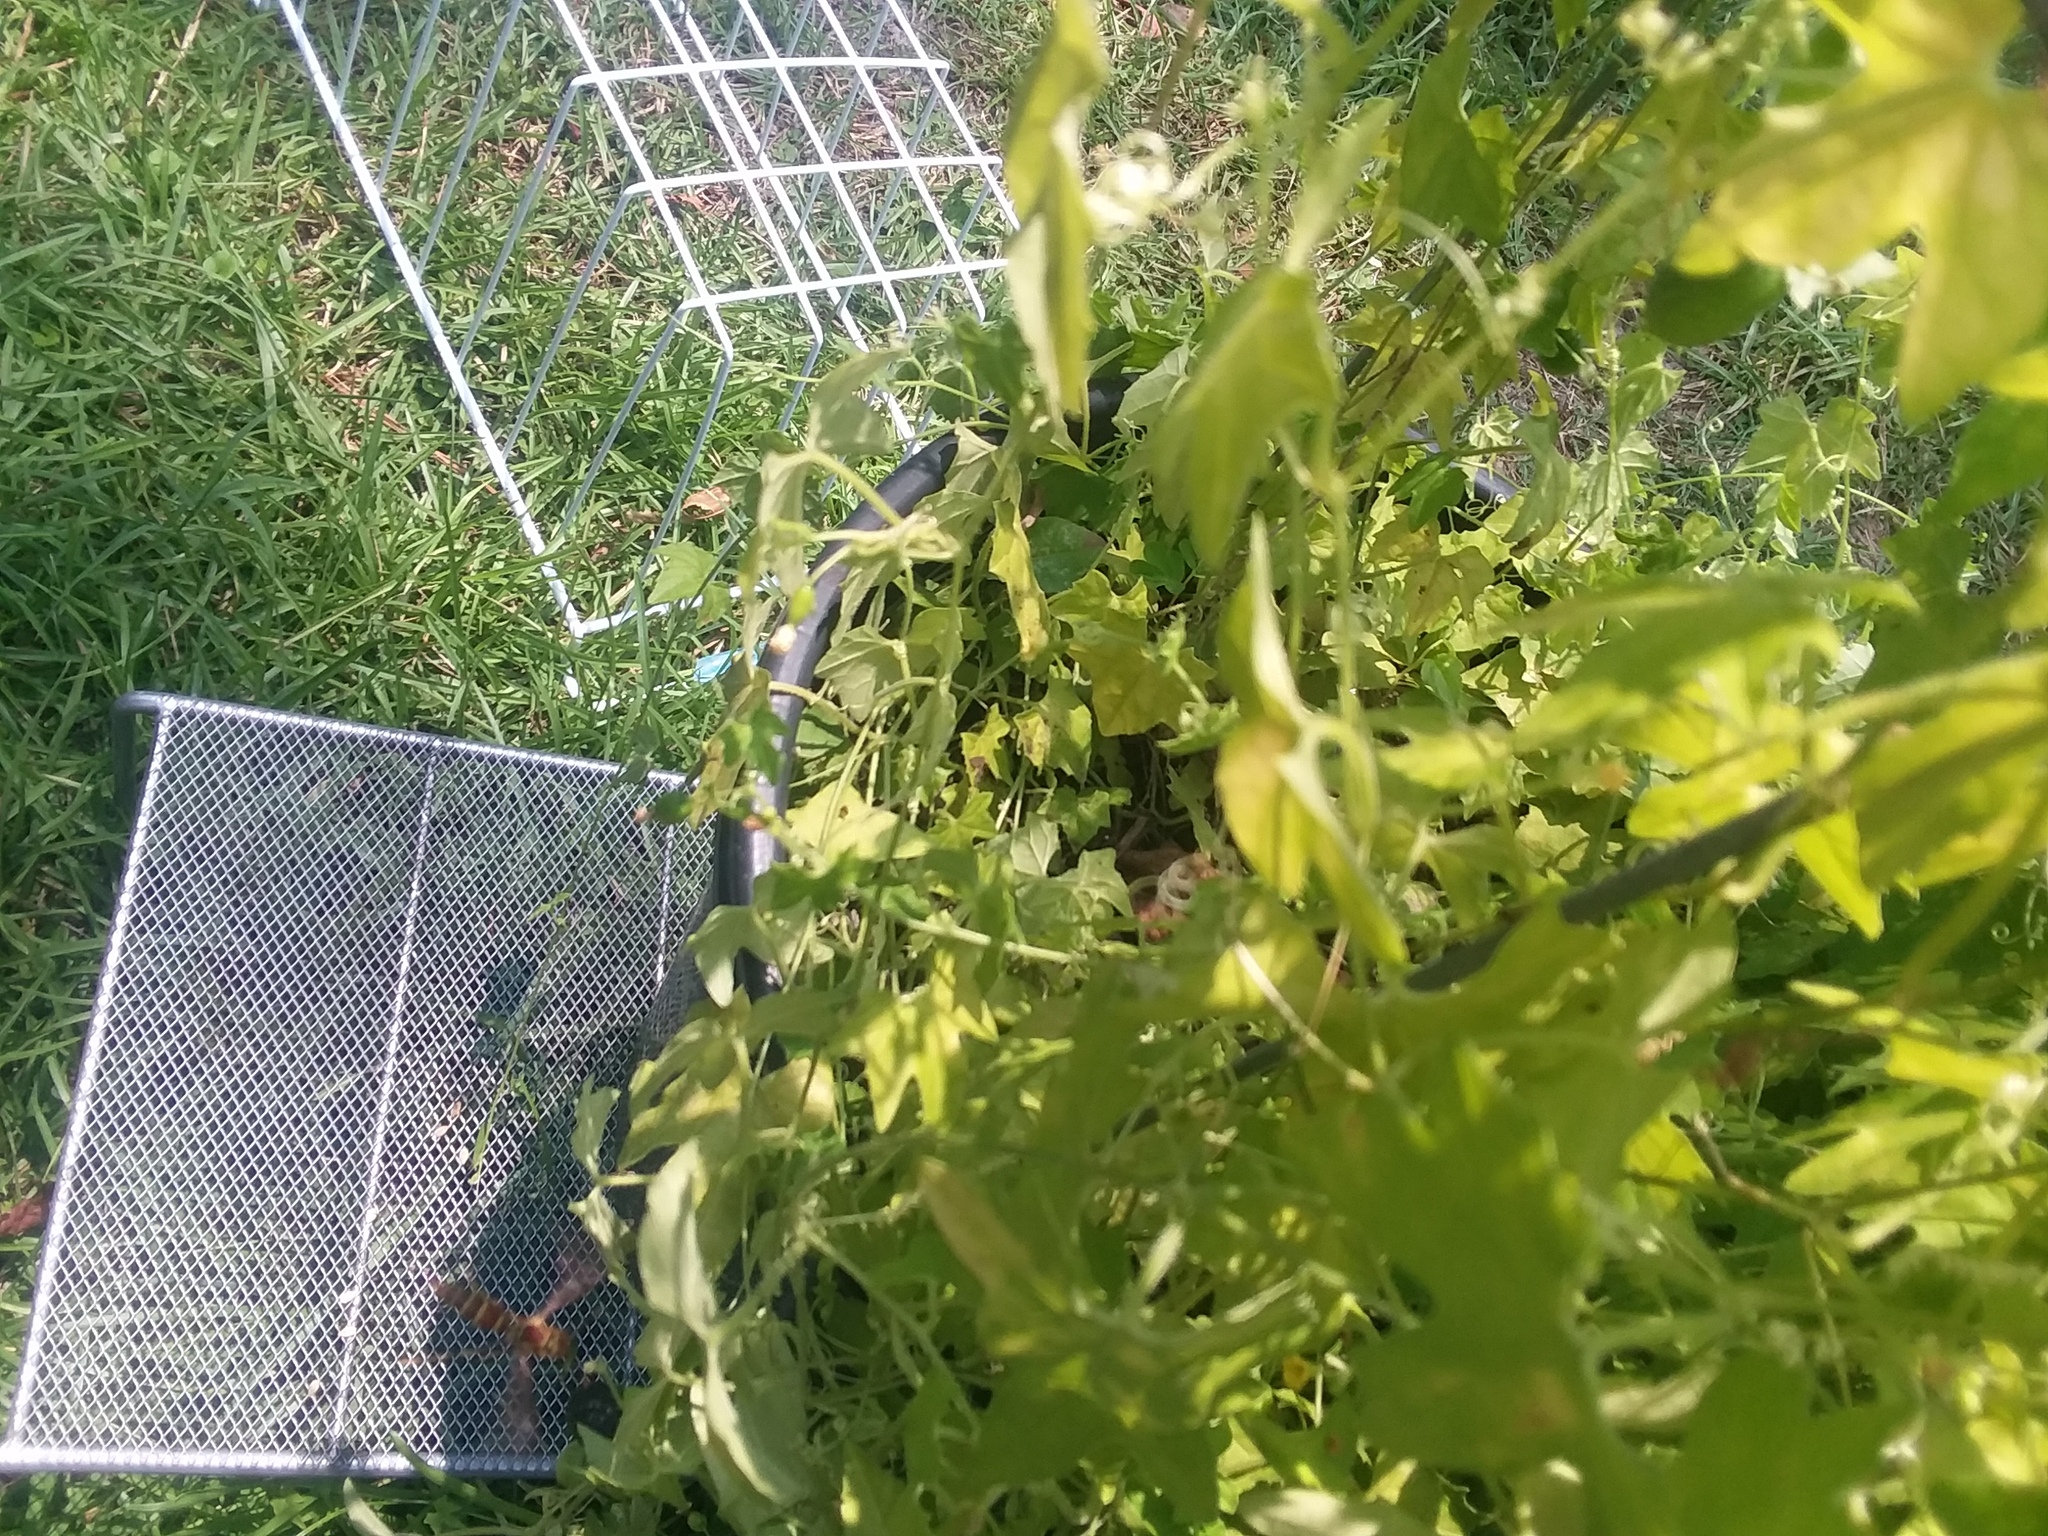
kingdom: Animalia
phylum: Arthropoda
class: Insecta
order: Hymenoptera
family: Vespidae
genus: Fuscopolistes
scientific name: Fuscopolistes
